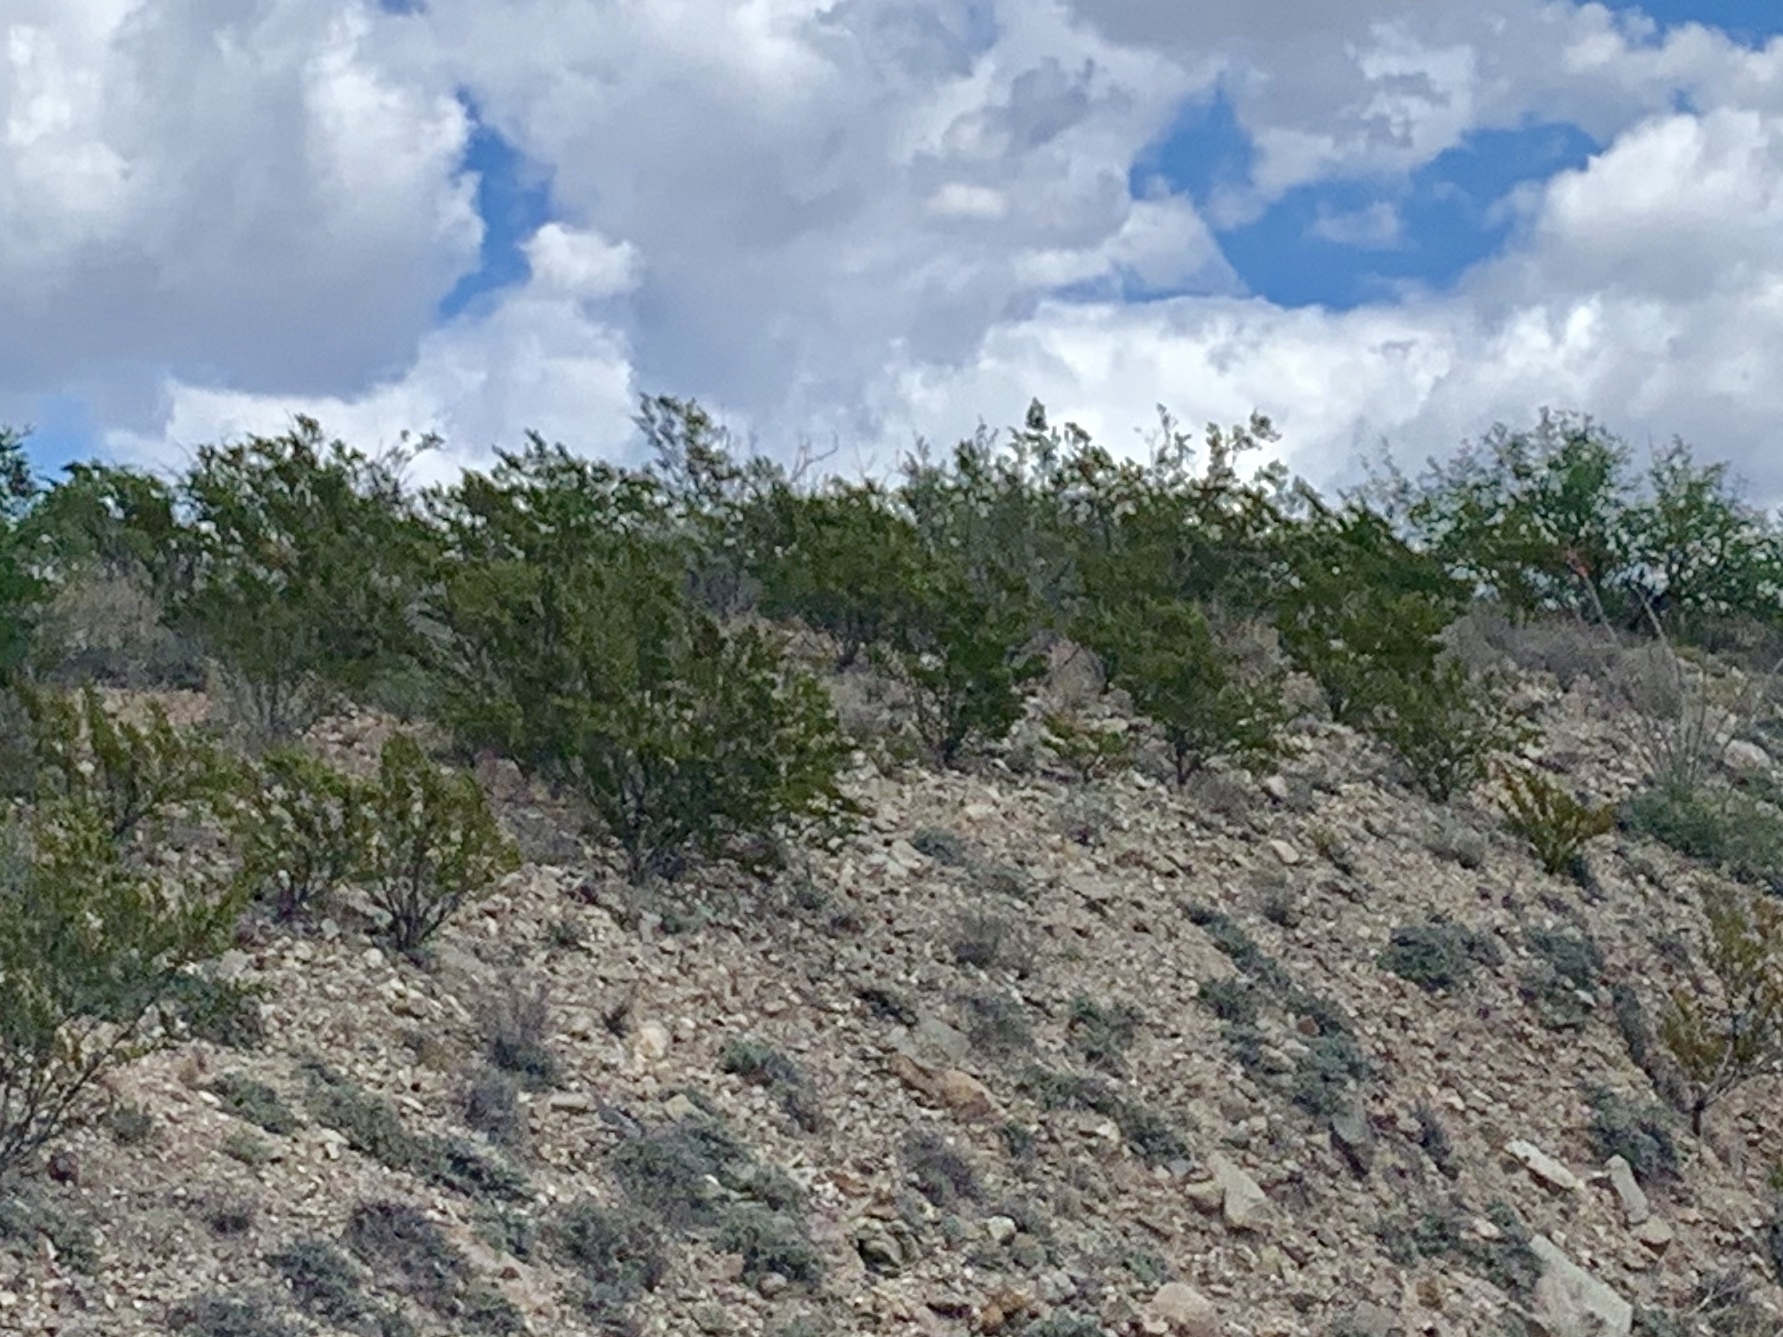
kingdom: Plantae
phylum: Tracheophyta
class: Magnoliopsida
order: Zygophyllales
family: Zygophyllaceae
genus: Larrea
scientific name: Larrea tridentata
